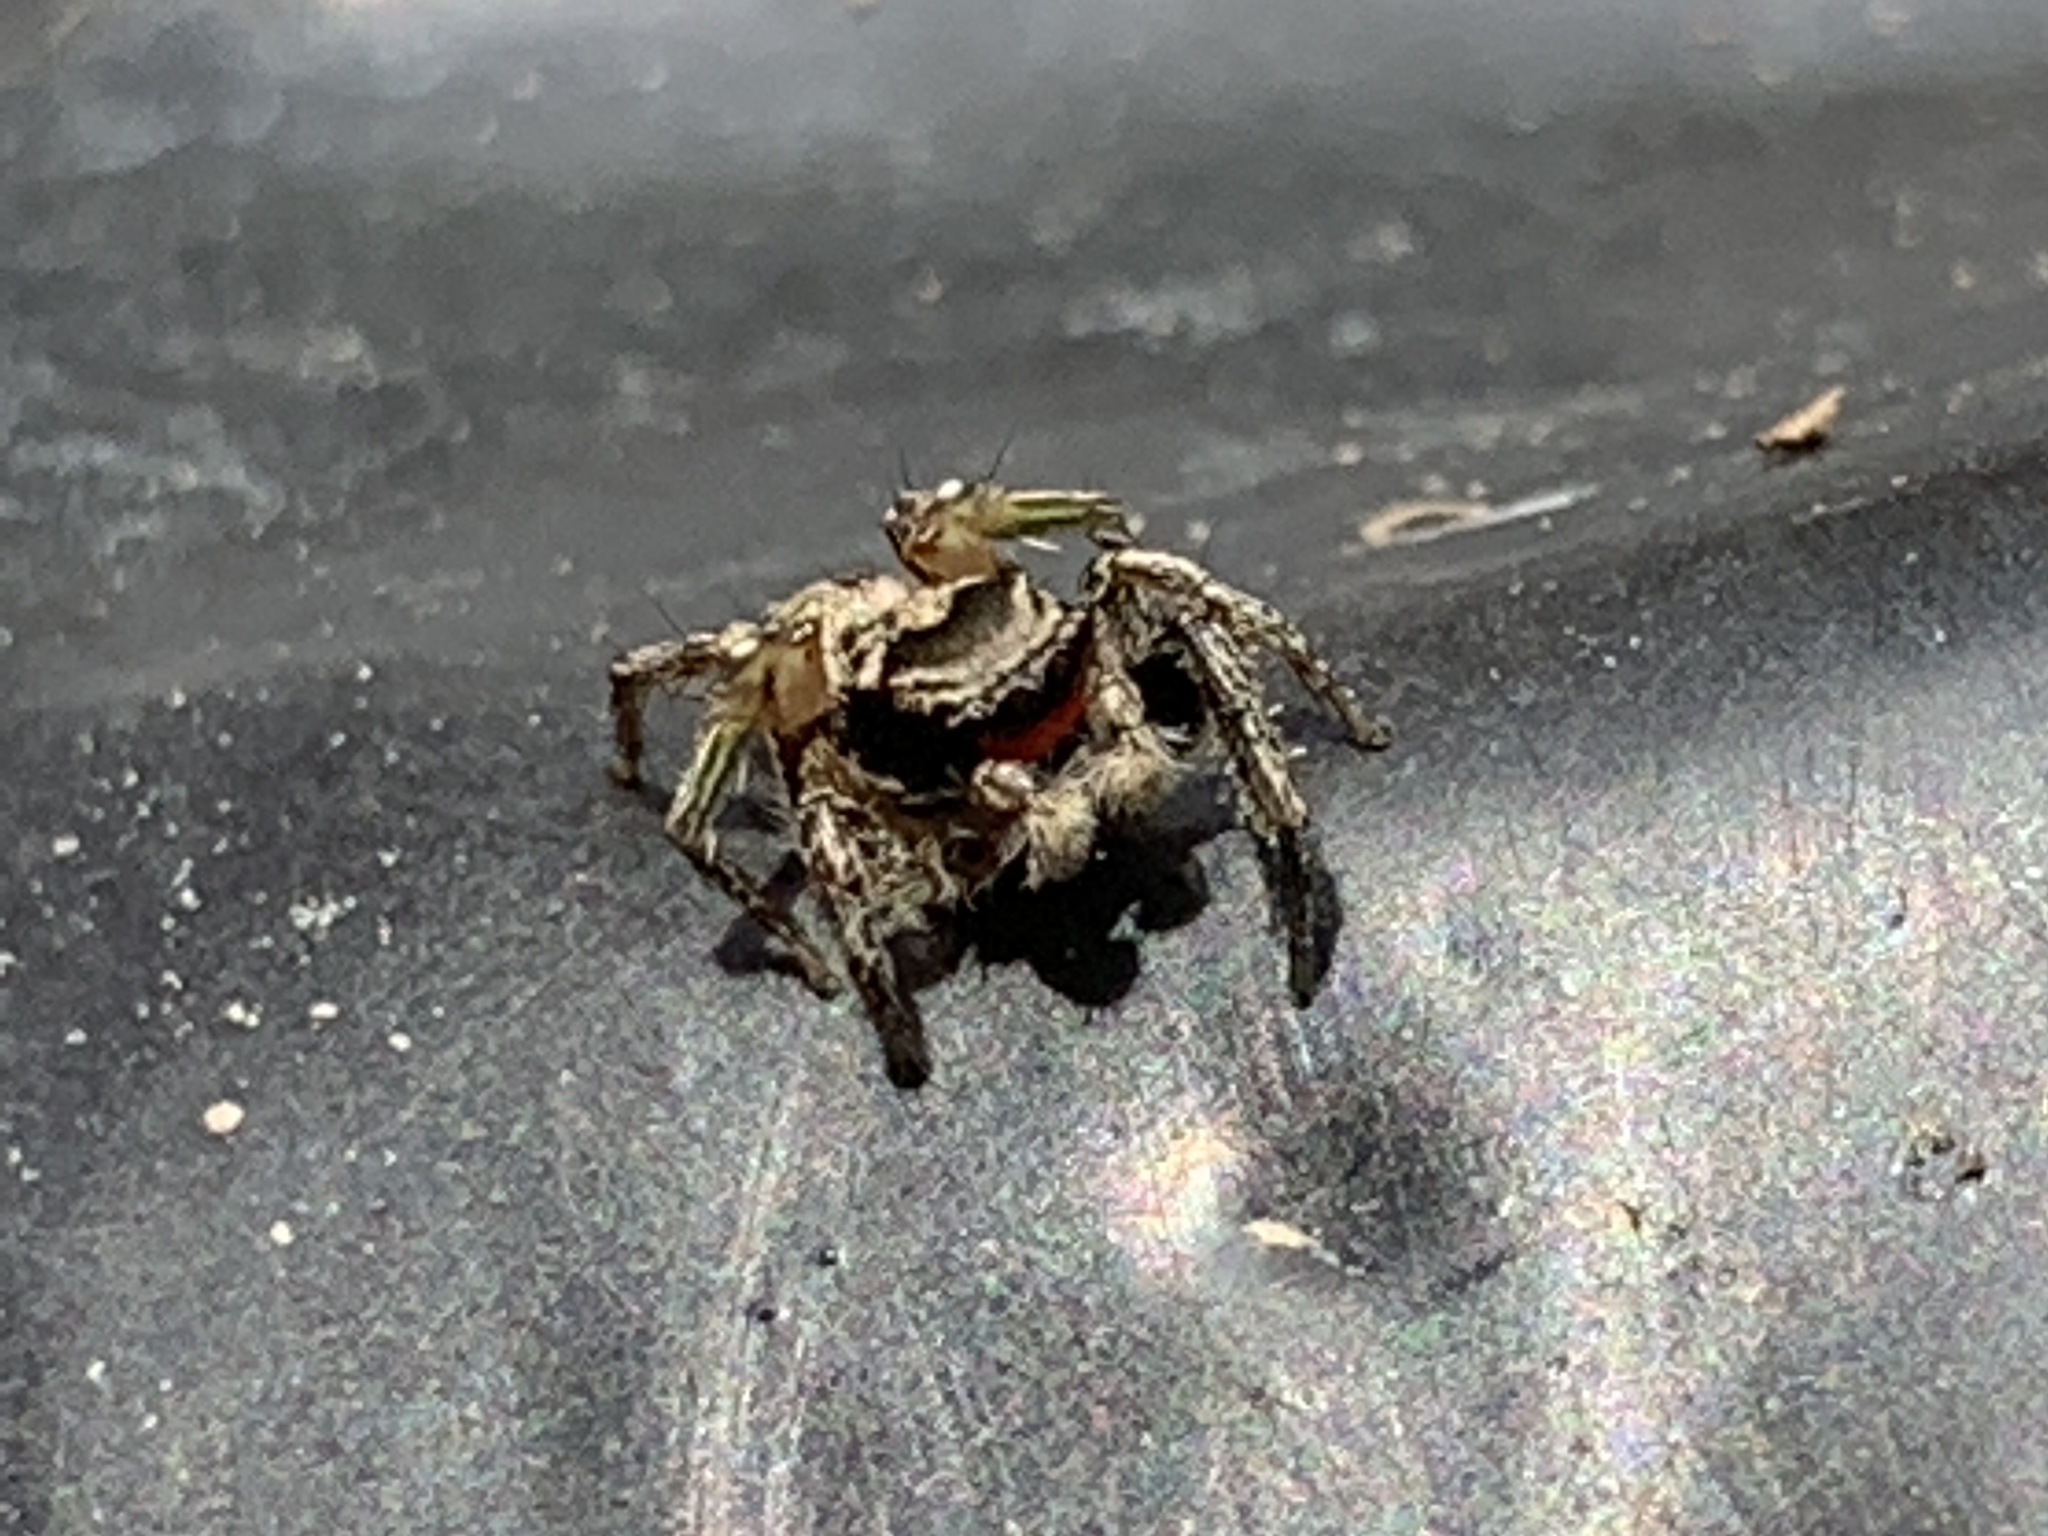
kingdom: Animalia
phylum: Arthropoda
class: Arachnida
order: Araneae
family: Salticidae
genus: Habronattus
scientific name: Habronattus coecatus
